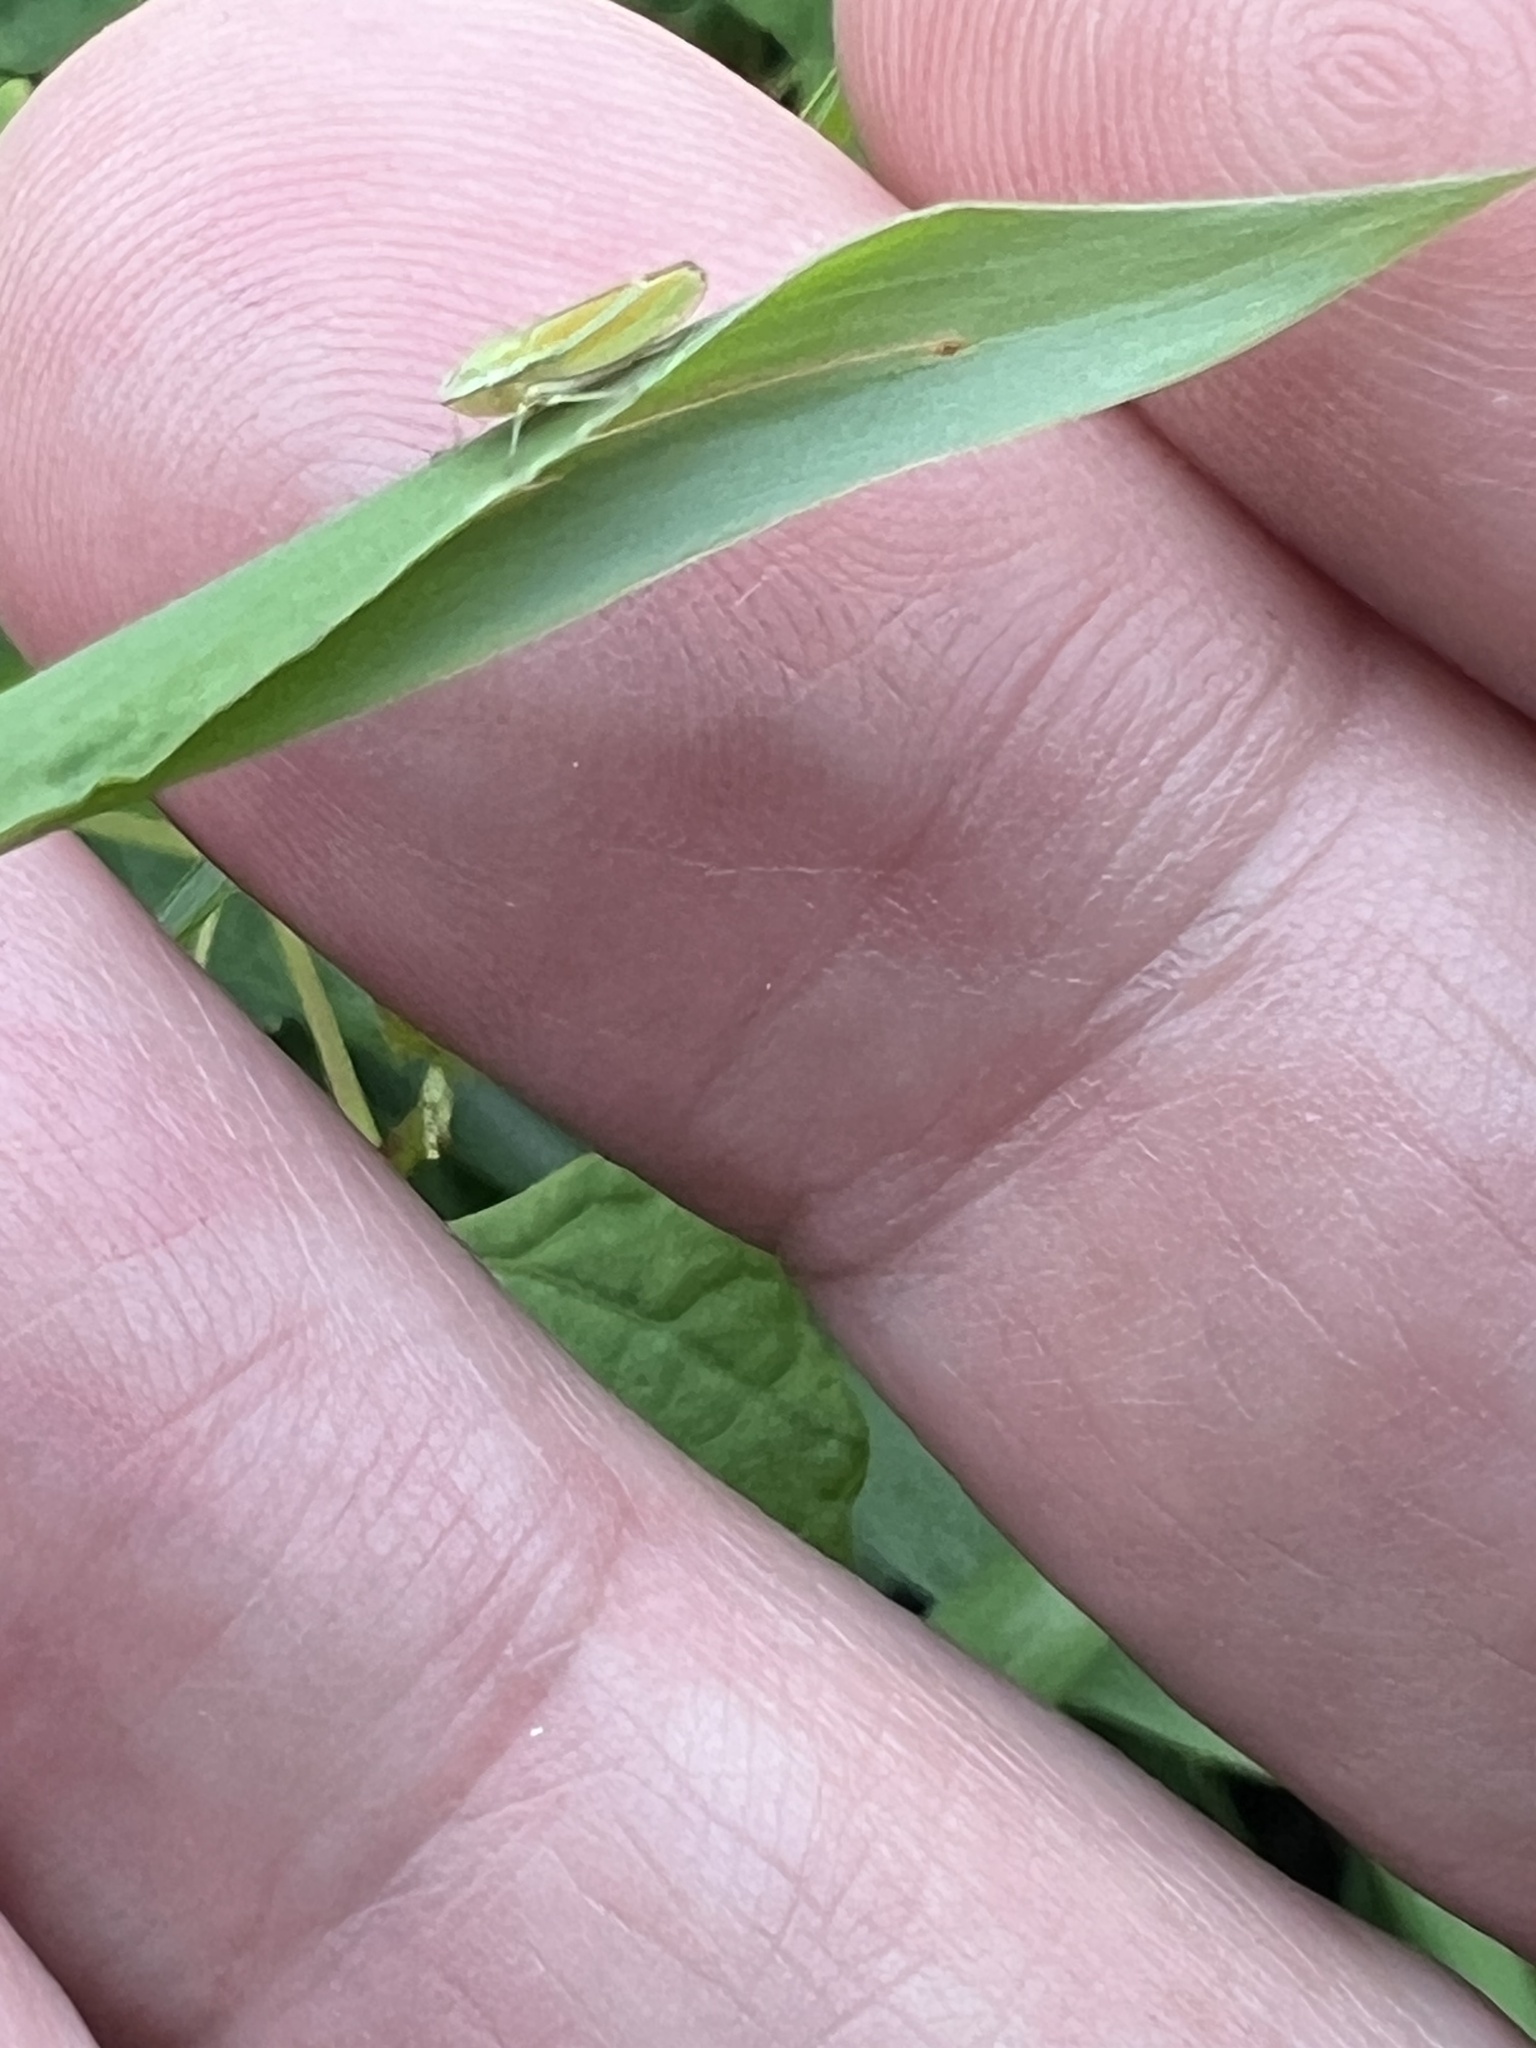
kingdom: Animalia
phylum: Arthropoda
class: Insecta
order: Hemiptera
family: Cicadellidae
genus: Graphocephala
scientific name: Graphocephala versuta
